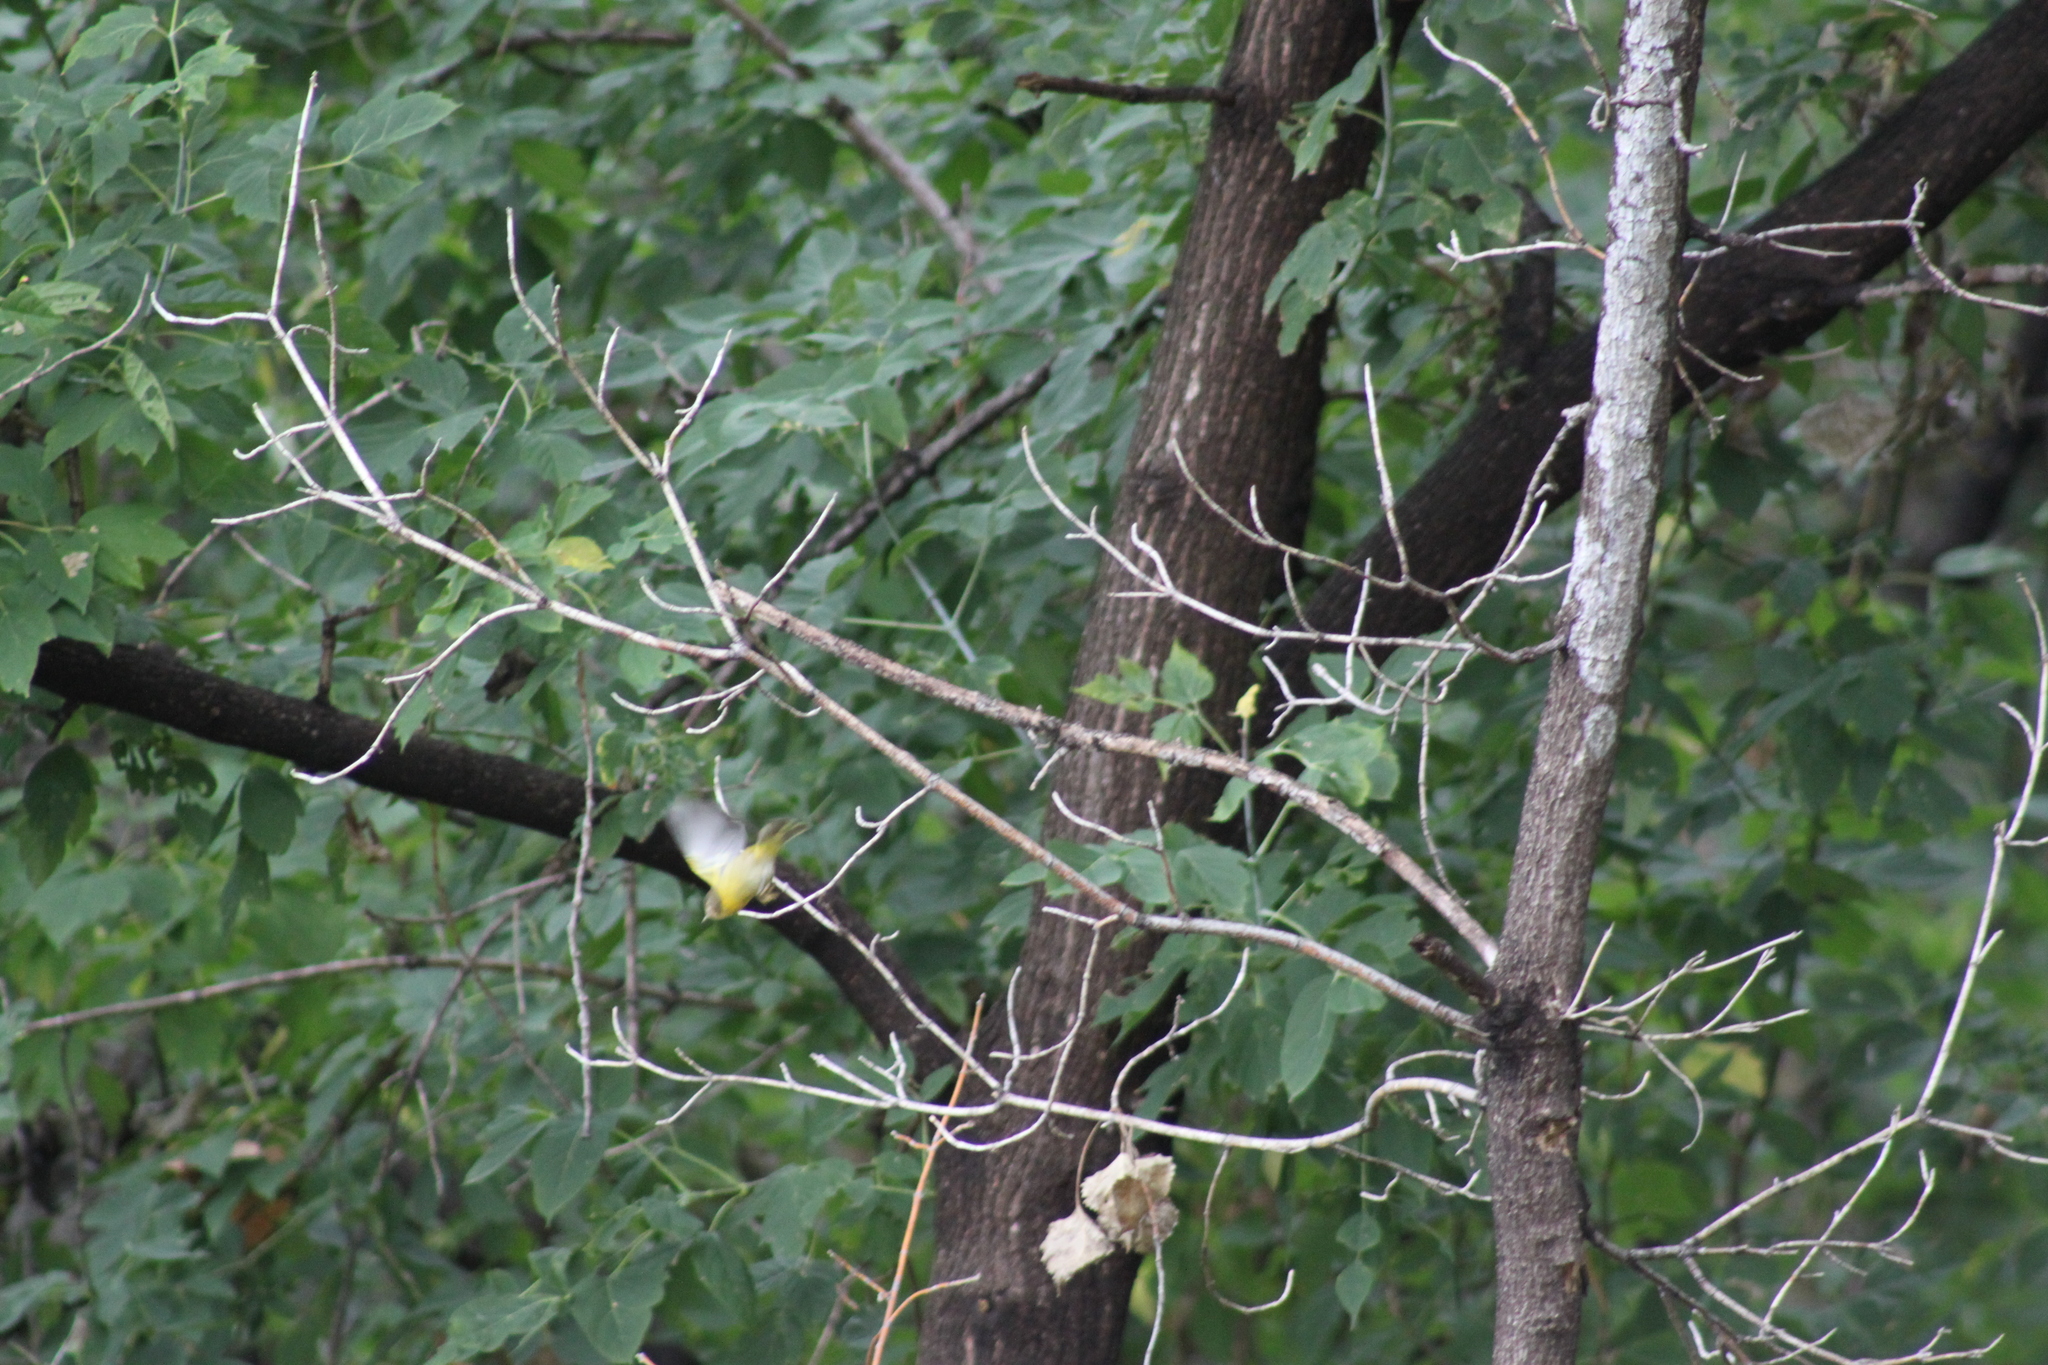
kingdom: Animalia
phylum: Chordata
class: Aves
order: Passeriformes
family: Parulidae
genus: Leiothlypis
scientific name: Leiothlypis ruficapilla
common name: Nashville warbler
